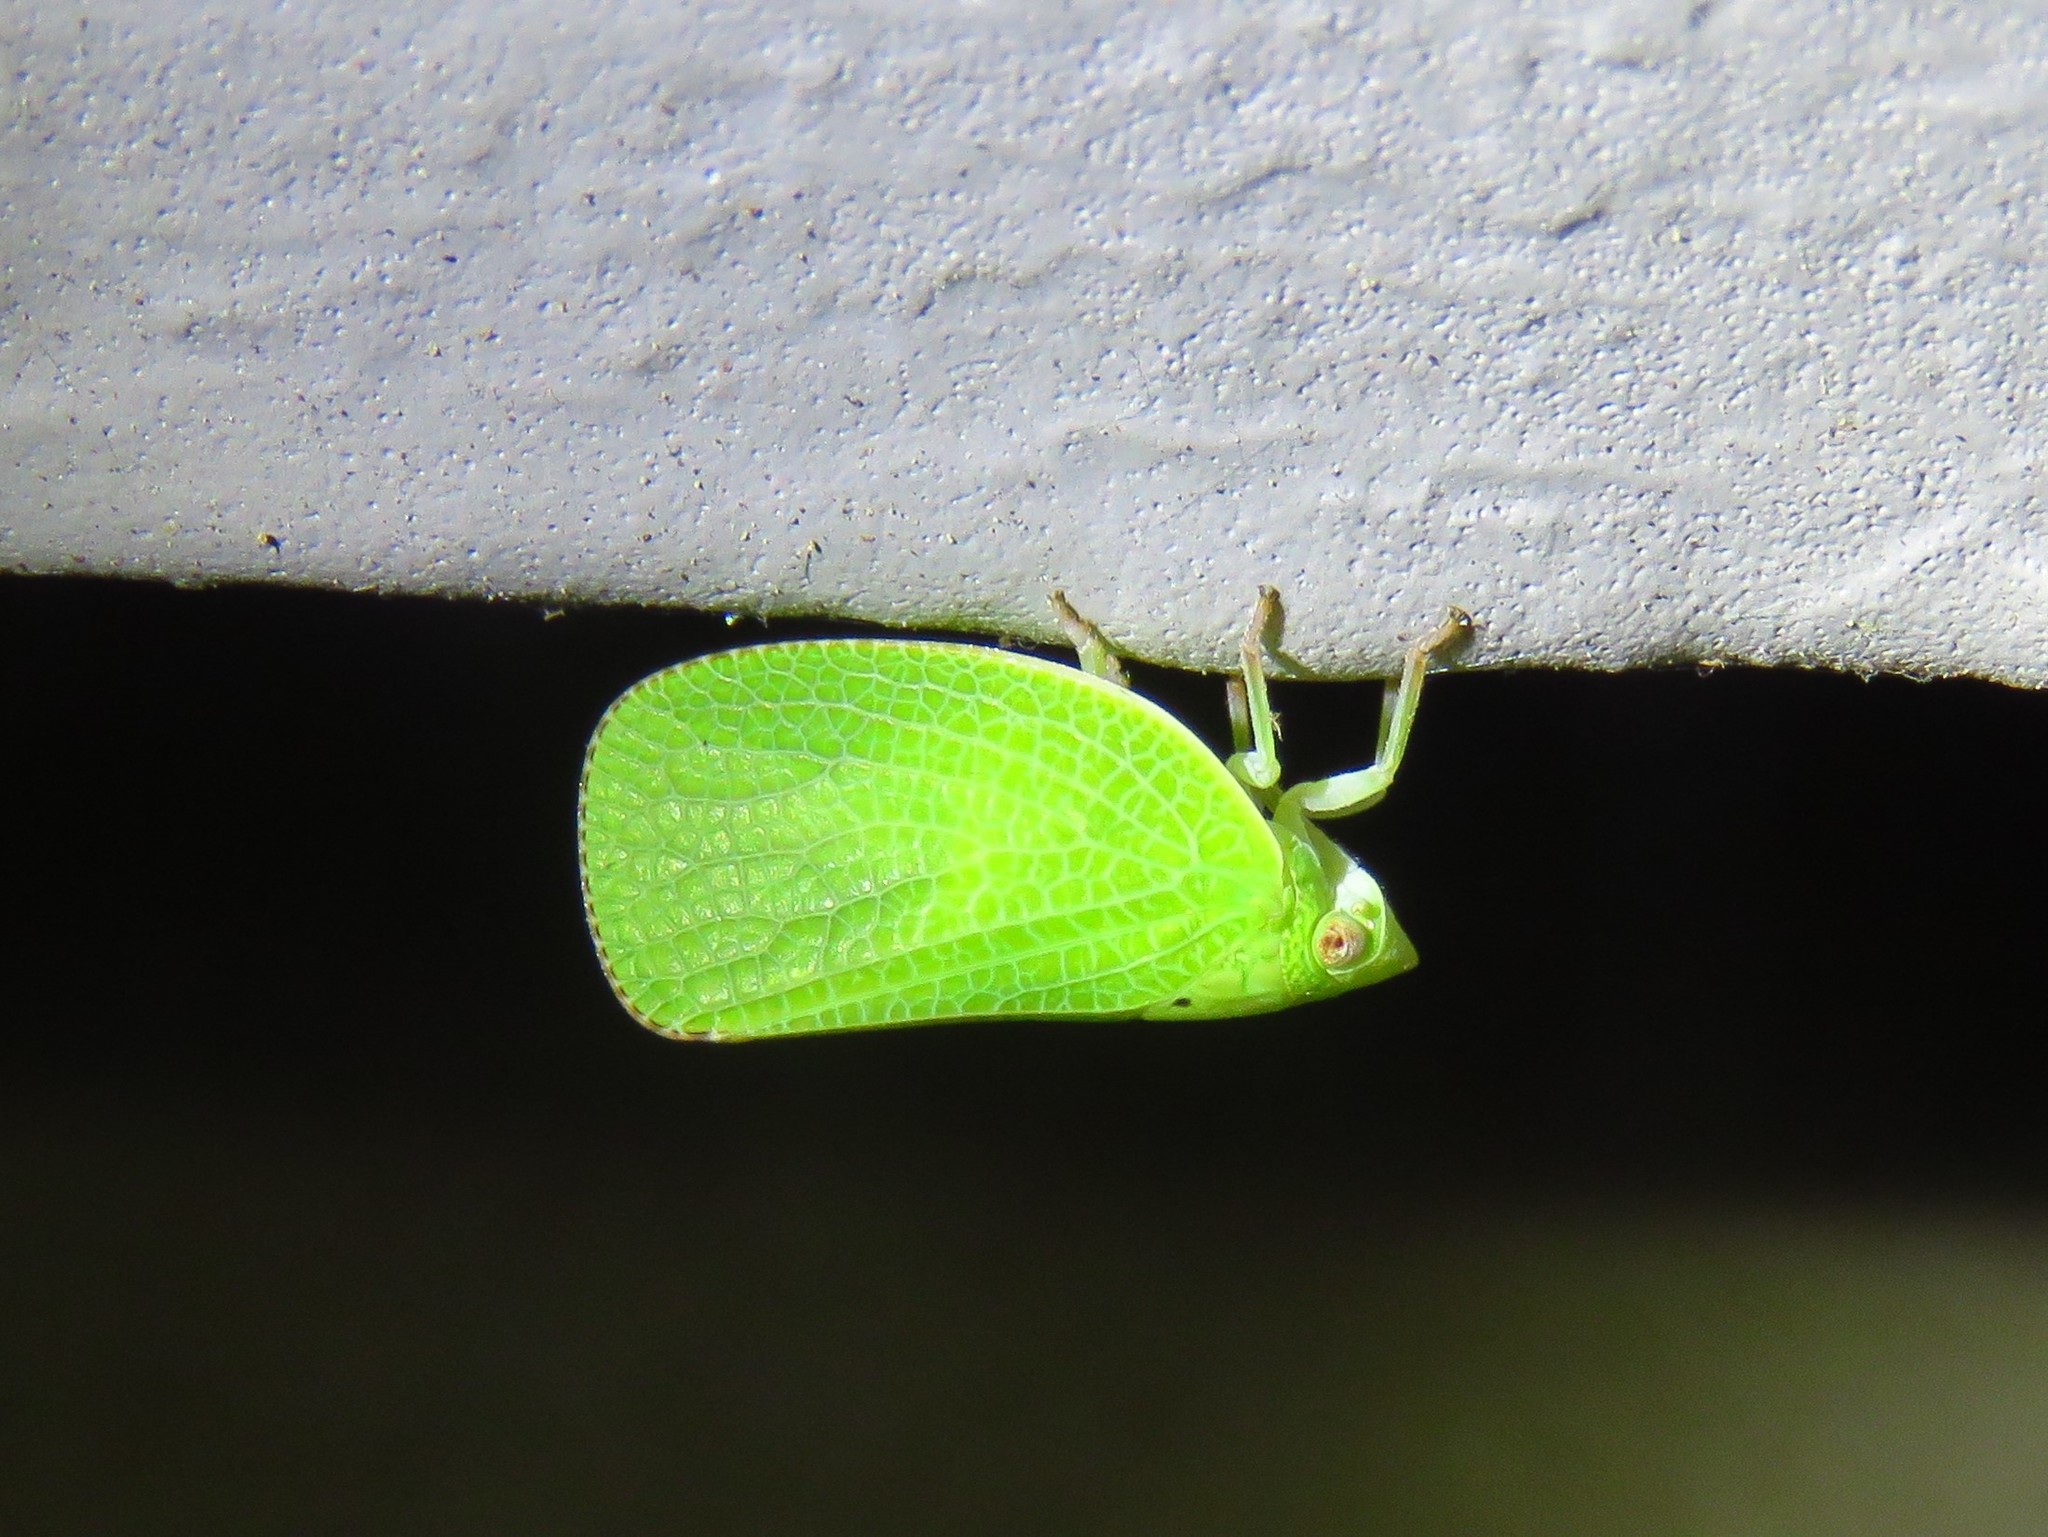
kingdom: Animalia
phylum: Arthropoda
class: Insecta
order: Hemiptera
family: Acanaloniidae
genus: Acanalonia
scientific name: Acanalonia conica
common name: Green cone-headed planthopper
